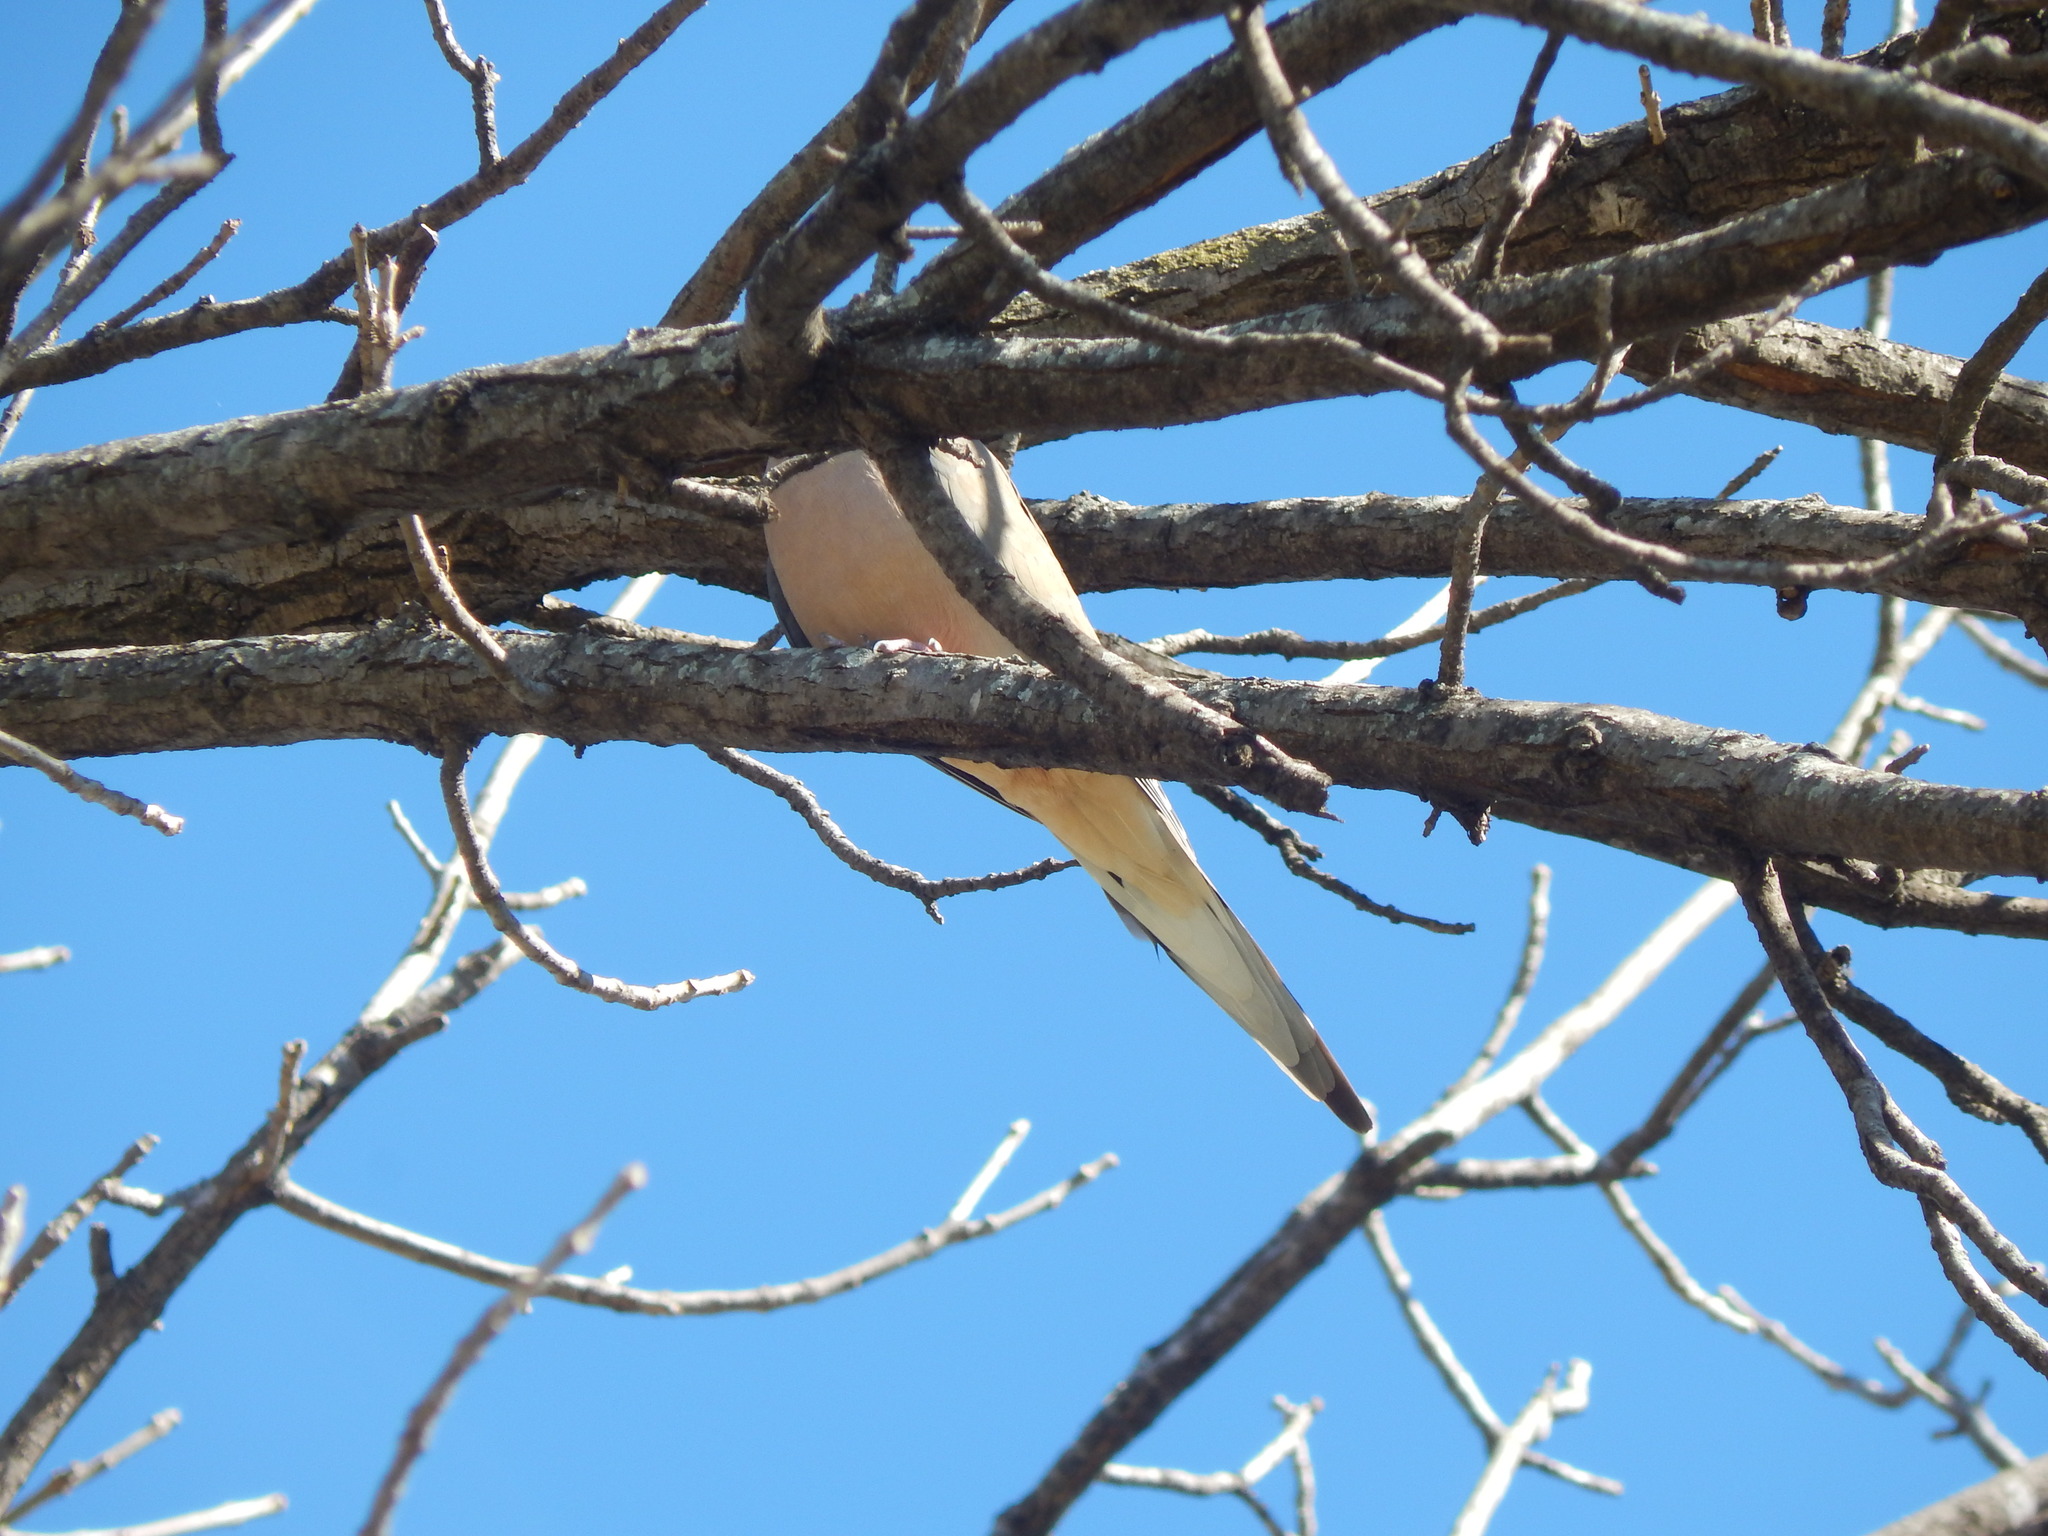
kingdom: Animalia
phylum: Chordata
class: Aves
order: Columbiformes
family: Columbidae
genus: Zenaida
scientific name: Zenaida macroura
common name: Mourning dove
